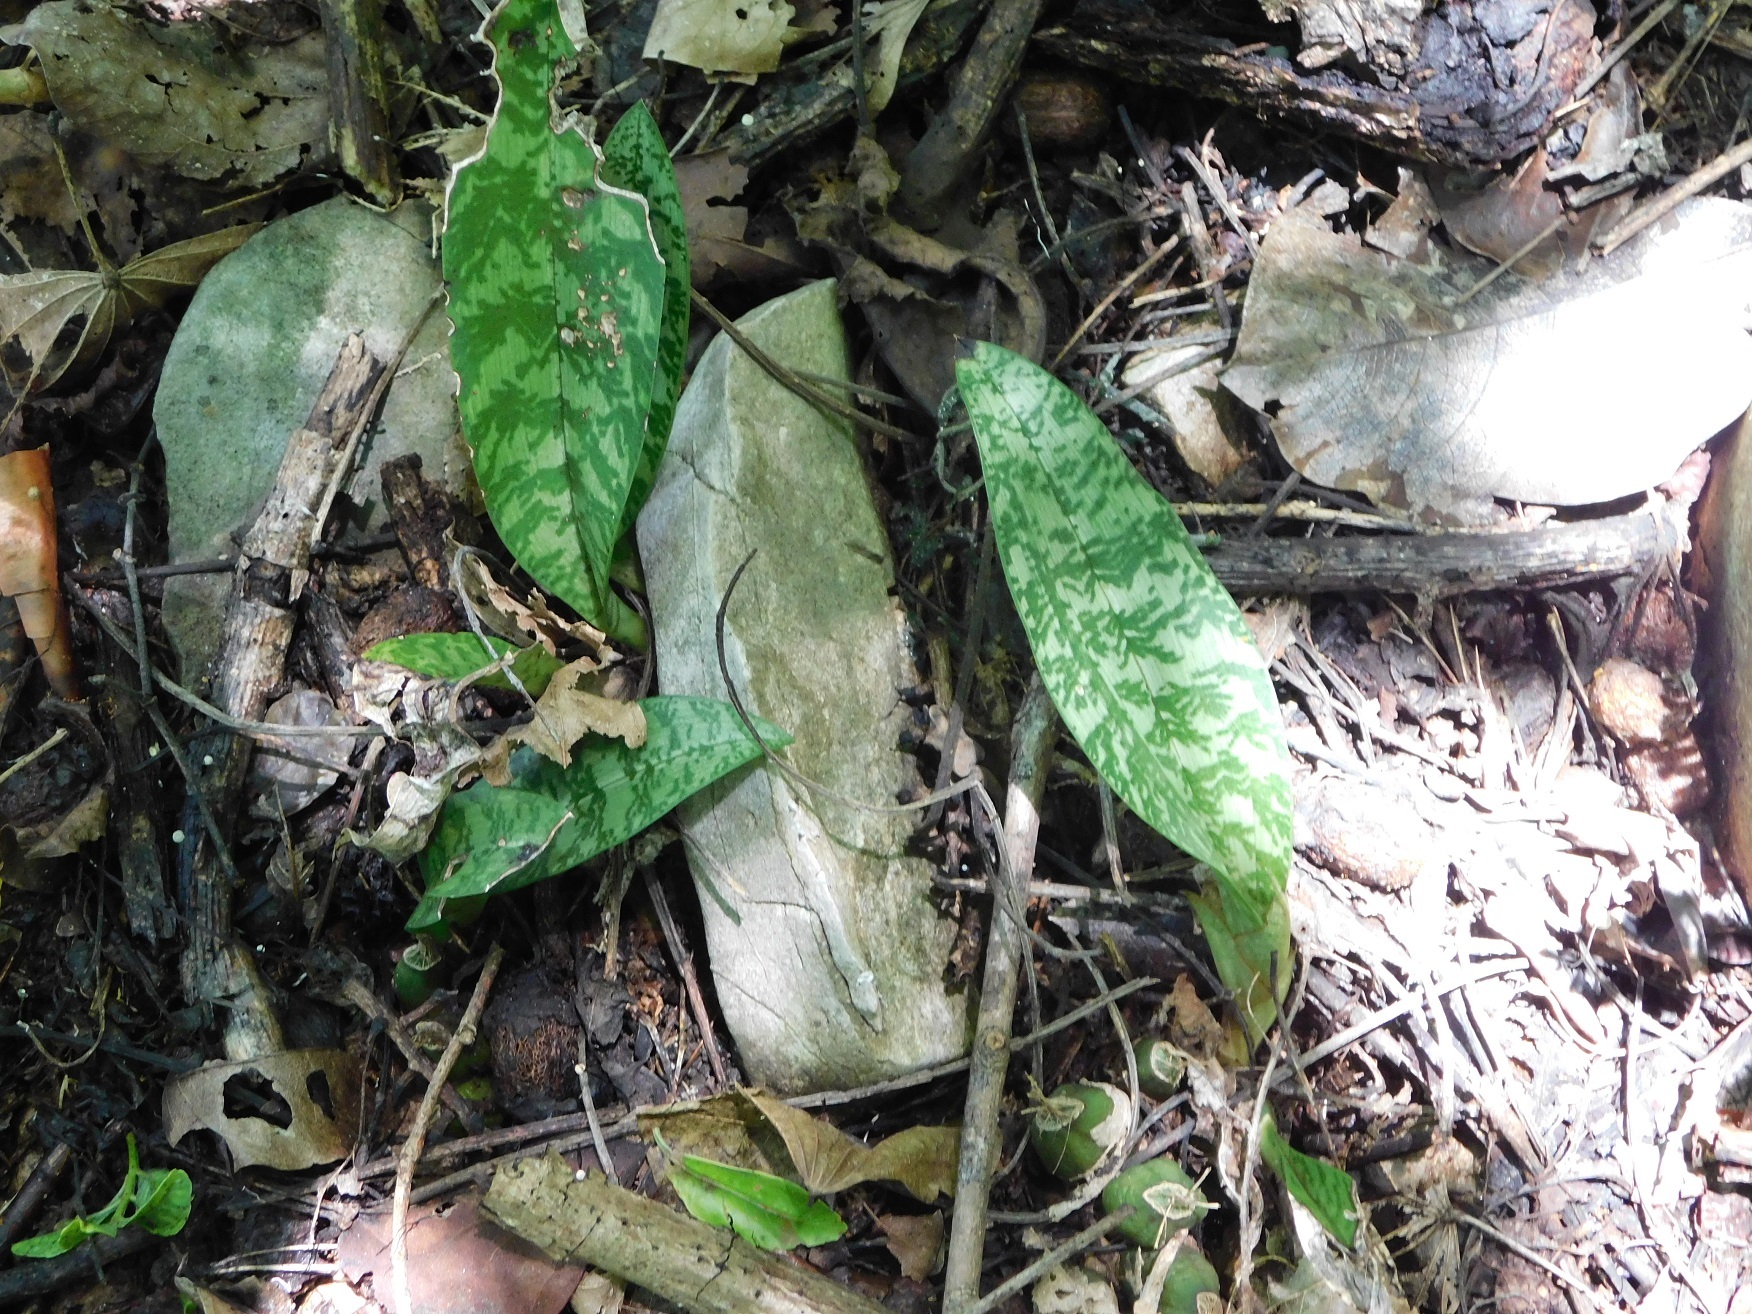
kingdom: Plantae
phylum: Tracheophyta
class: Liliopsida
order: Asparagales
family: Orchidaceae
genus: Eulophia
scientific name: Eulophia maculata
